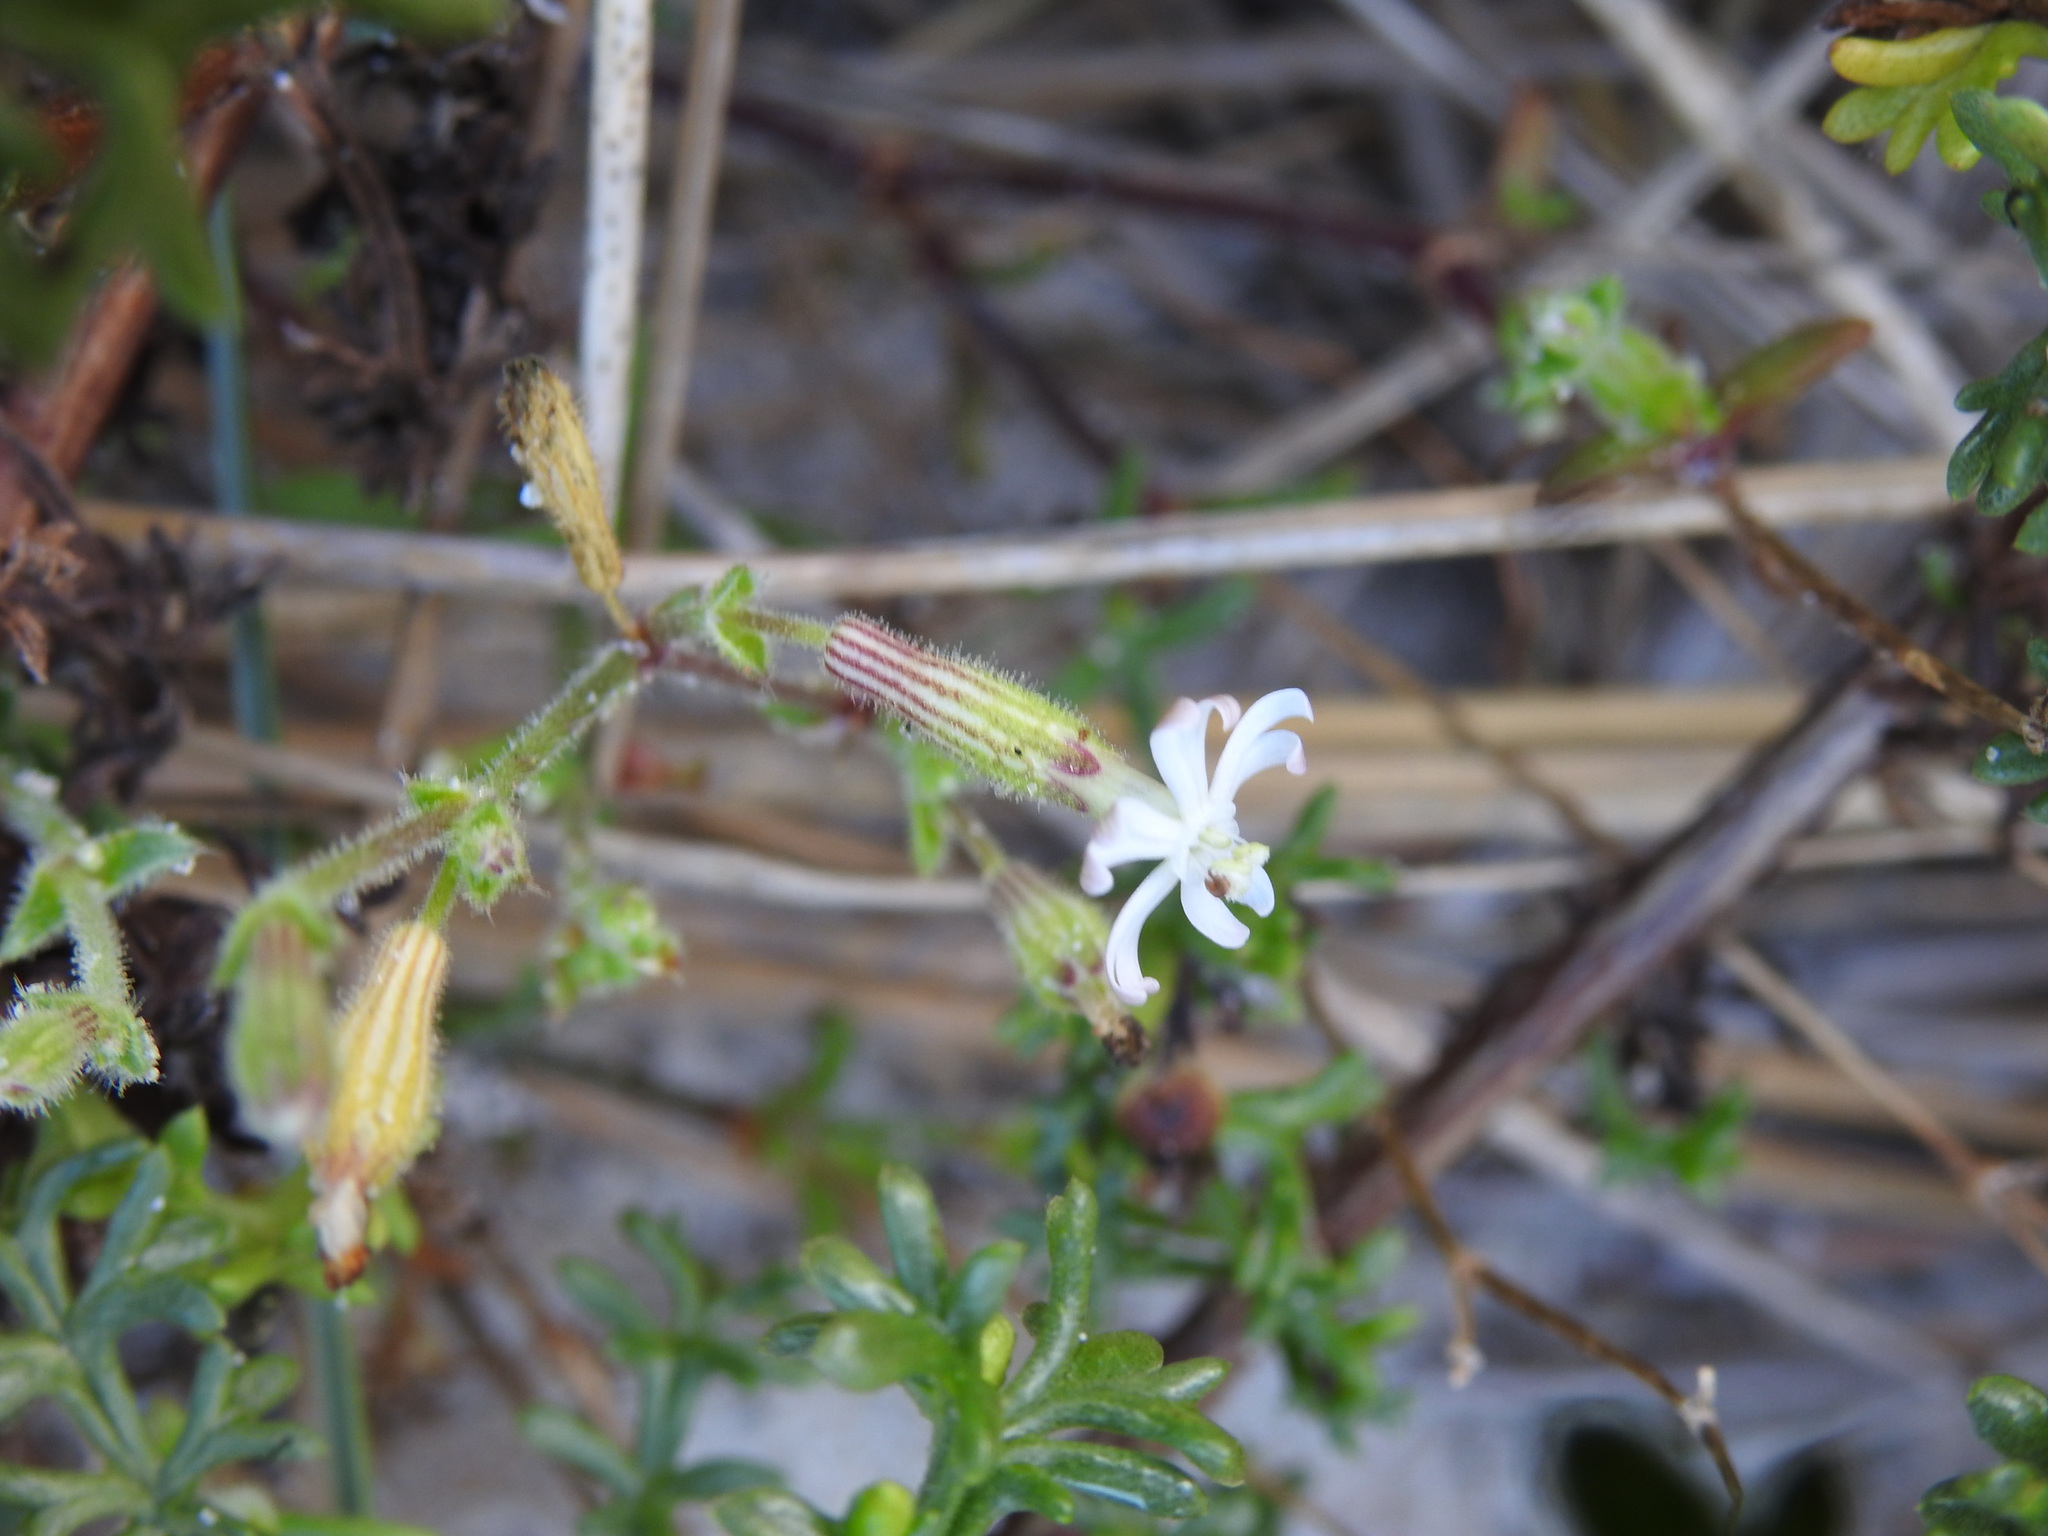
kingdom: Plantae
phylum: Tracheophyta
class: Magnoliopsida
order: Caryophyllales
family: Caryophyllaceae
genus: Silene
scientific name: Silene nicaeensis
